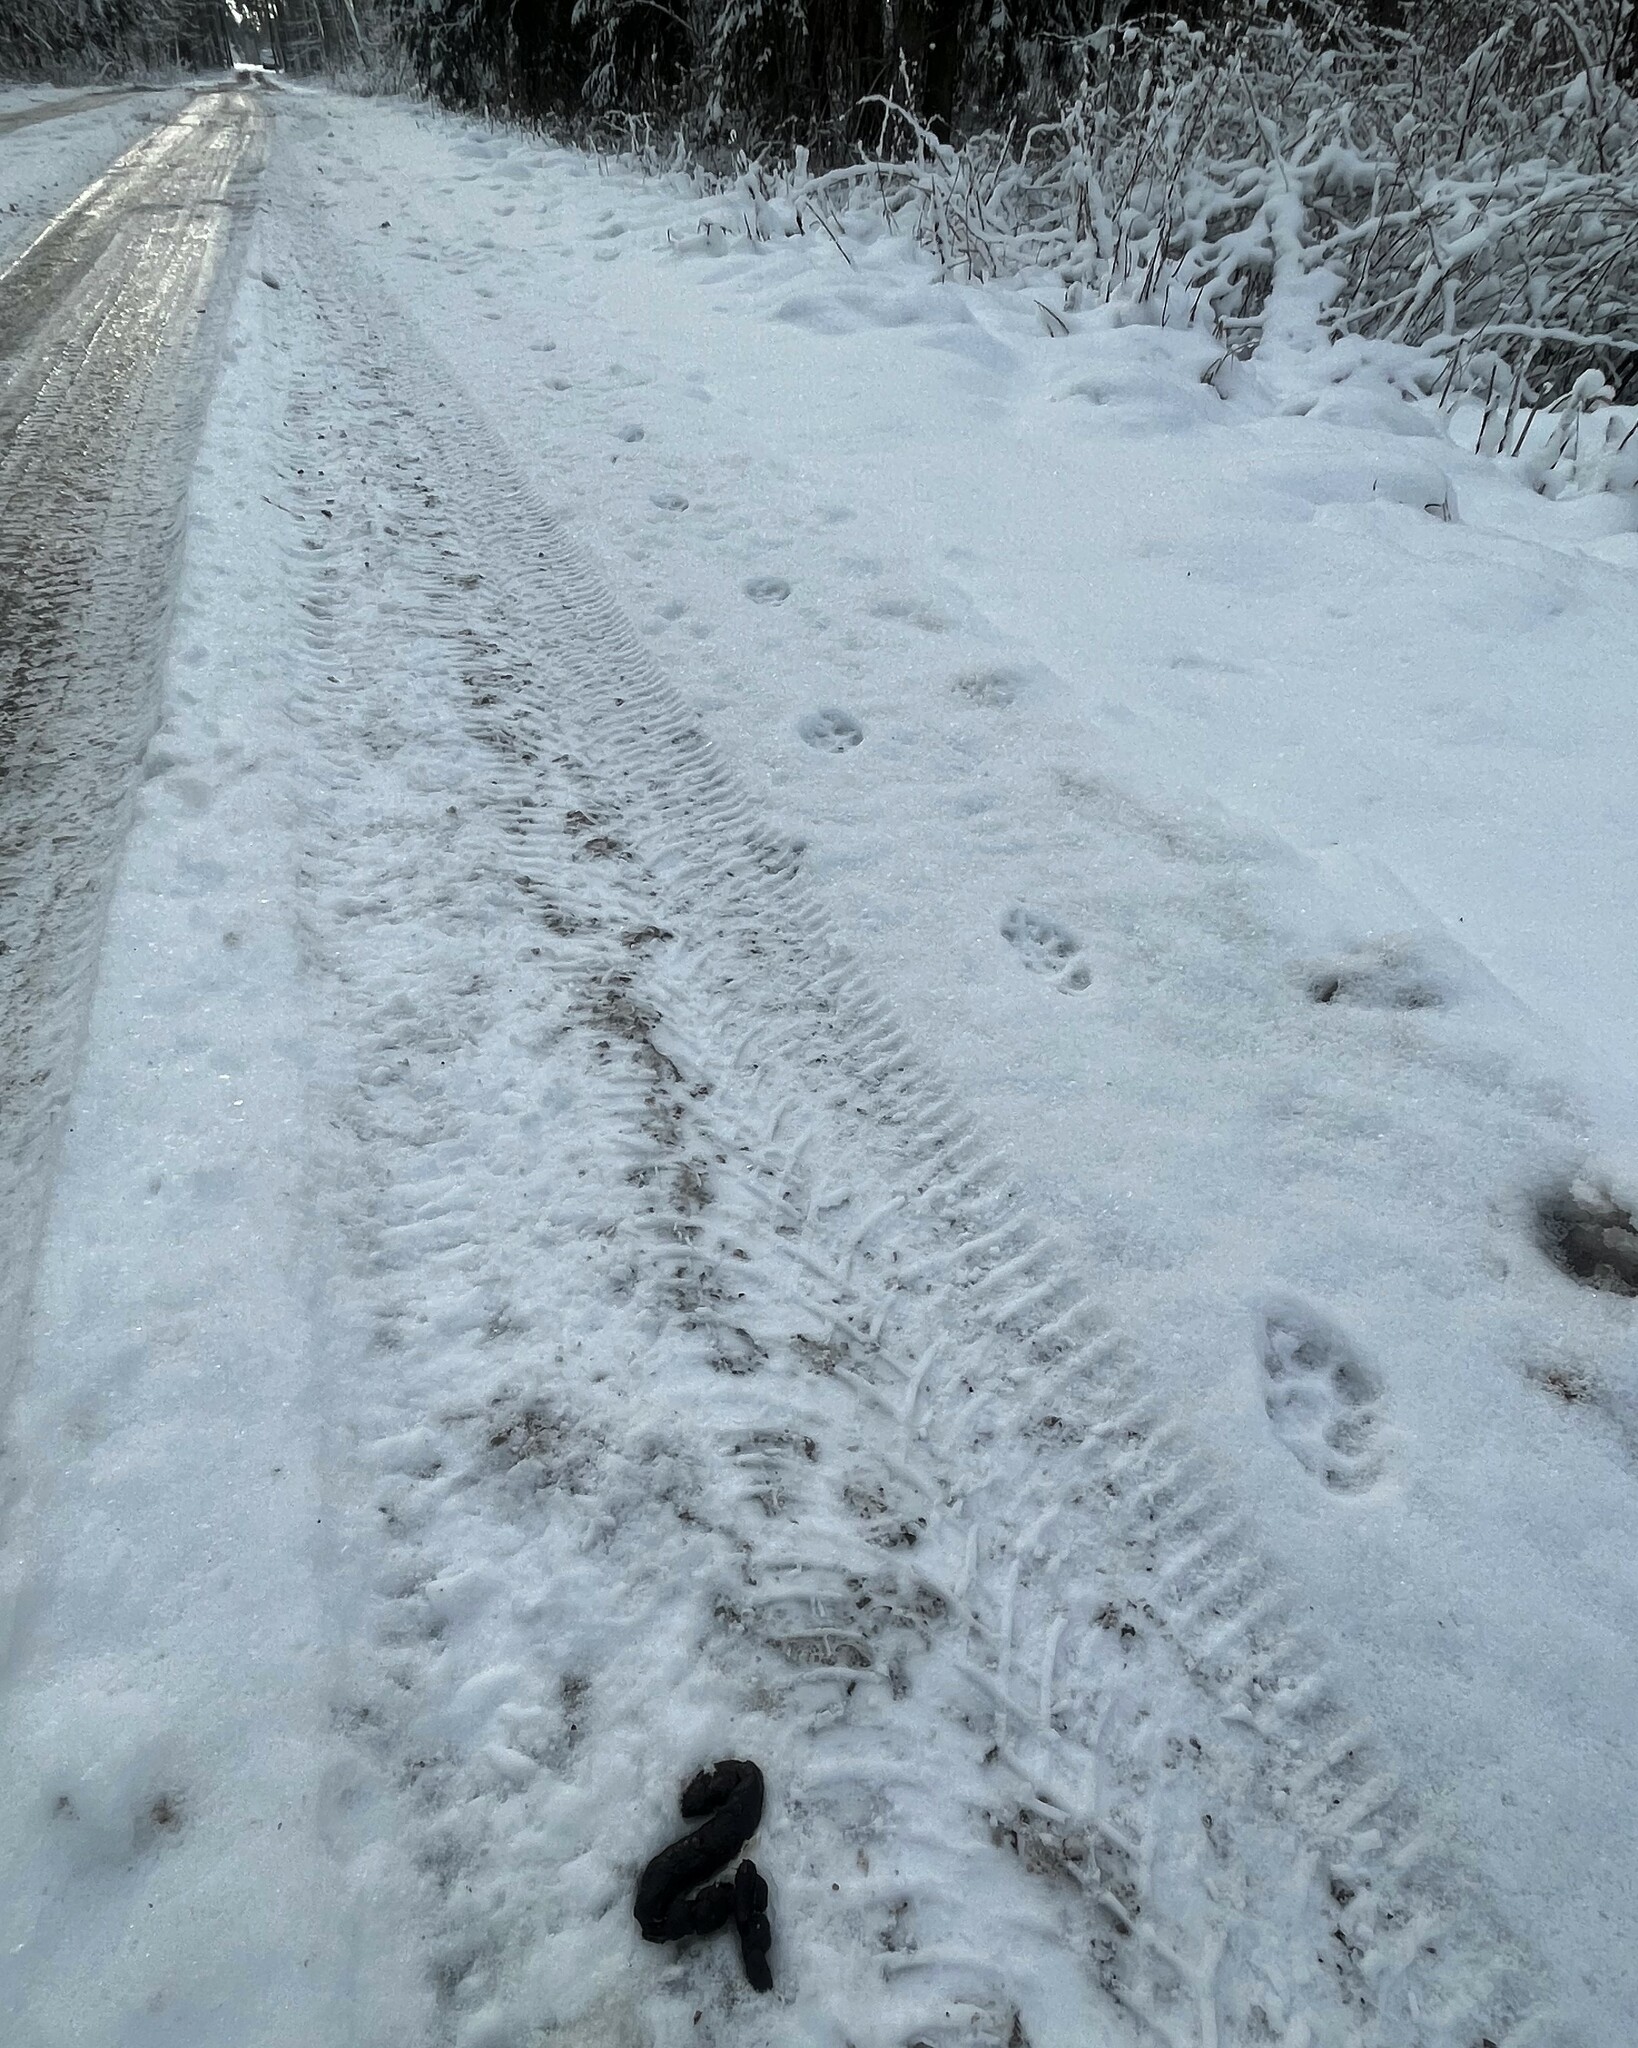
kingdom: Animalia
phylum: Chordata
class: Mammalia
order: Carnivora
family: Canidae
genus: Vulpes
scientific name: Vulpes vulpes
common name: Red fox
